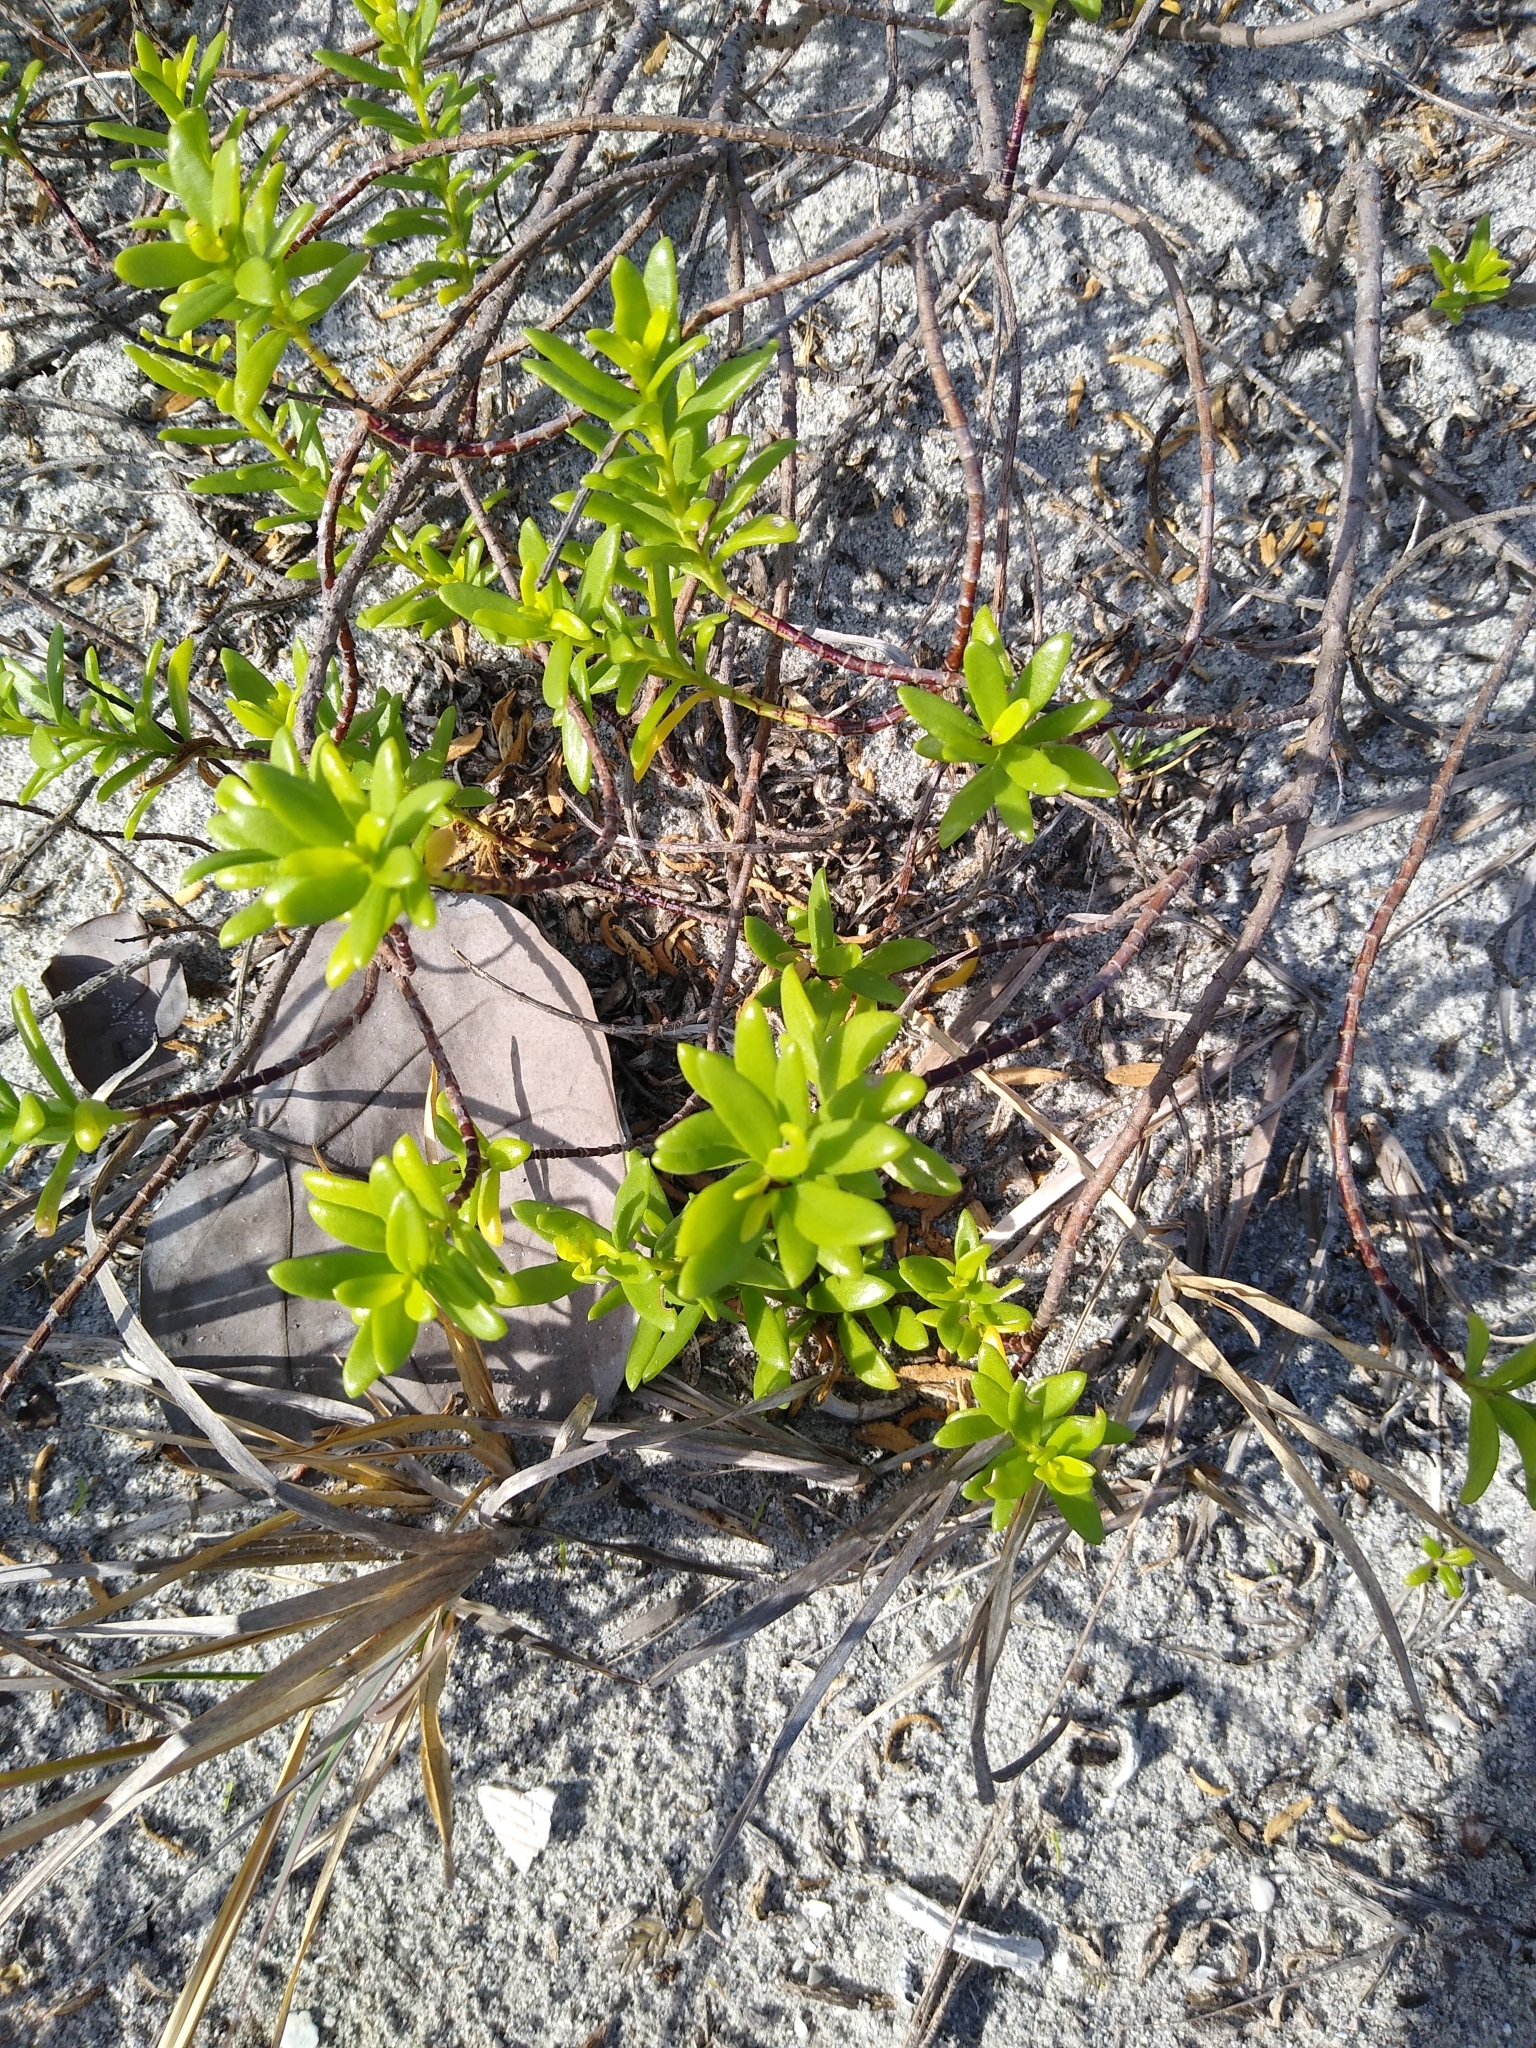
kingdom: Plantae
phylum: Tracheophyta
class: Magnoliopsida
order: Asterales
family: Asteraceae
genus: Iva
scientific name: Iva imbricata
